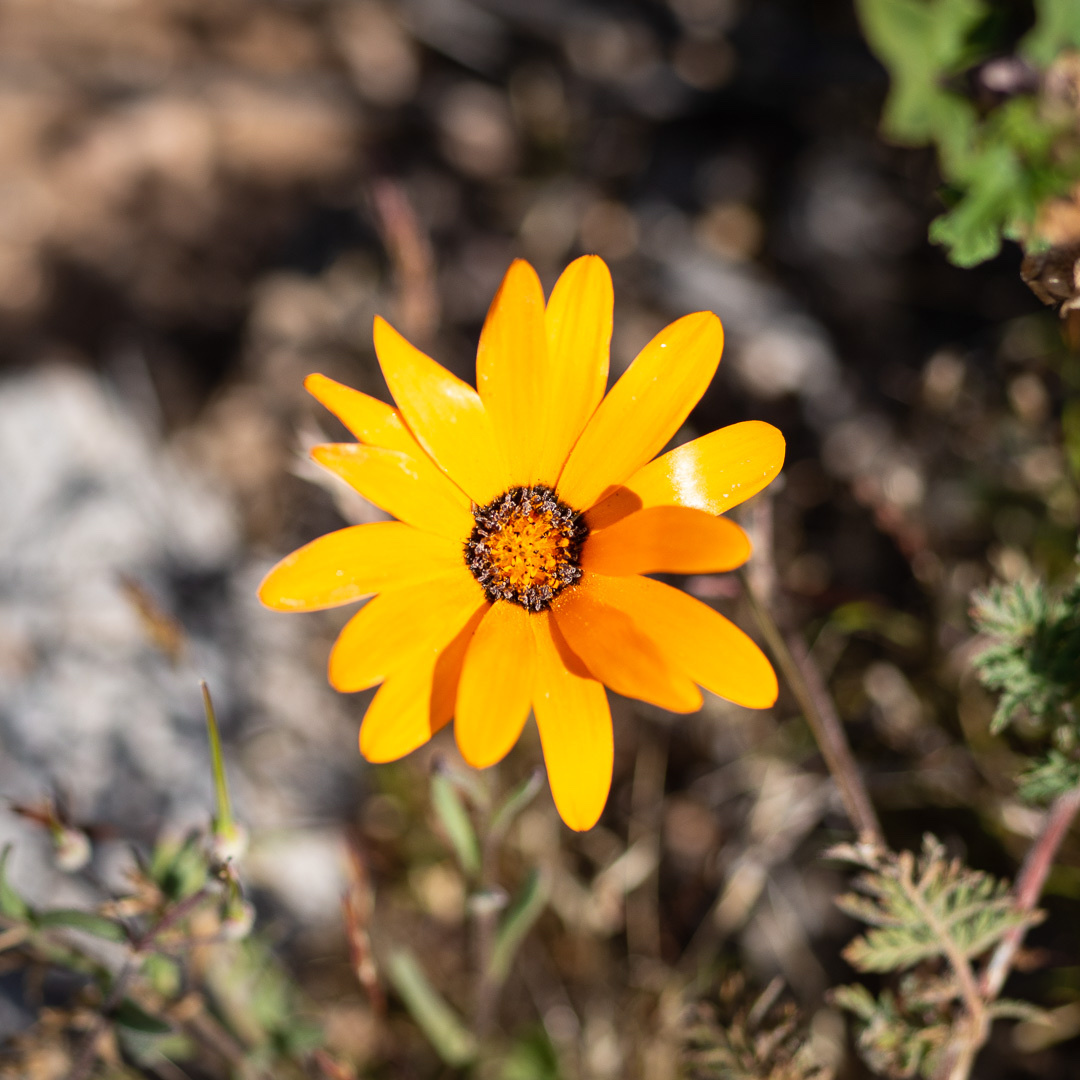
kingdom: Plantae
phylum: Tracheophyta
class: Magnoliopsida
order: Asterales
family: Asteraceae
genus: Dimorphotheca
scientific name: Dimorphotheca sinuata
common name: Glandular cape marigold
